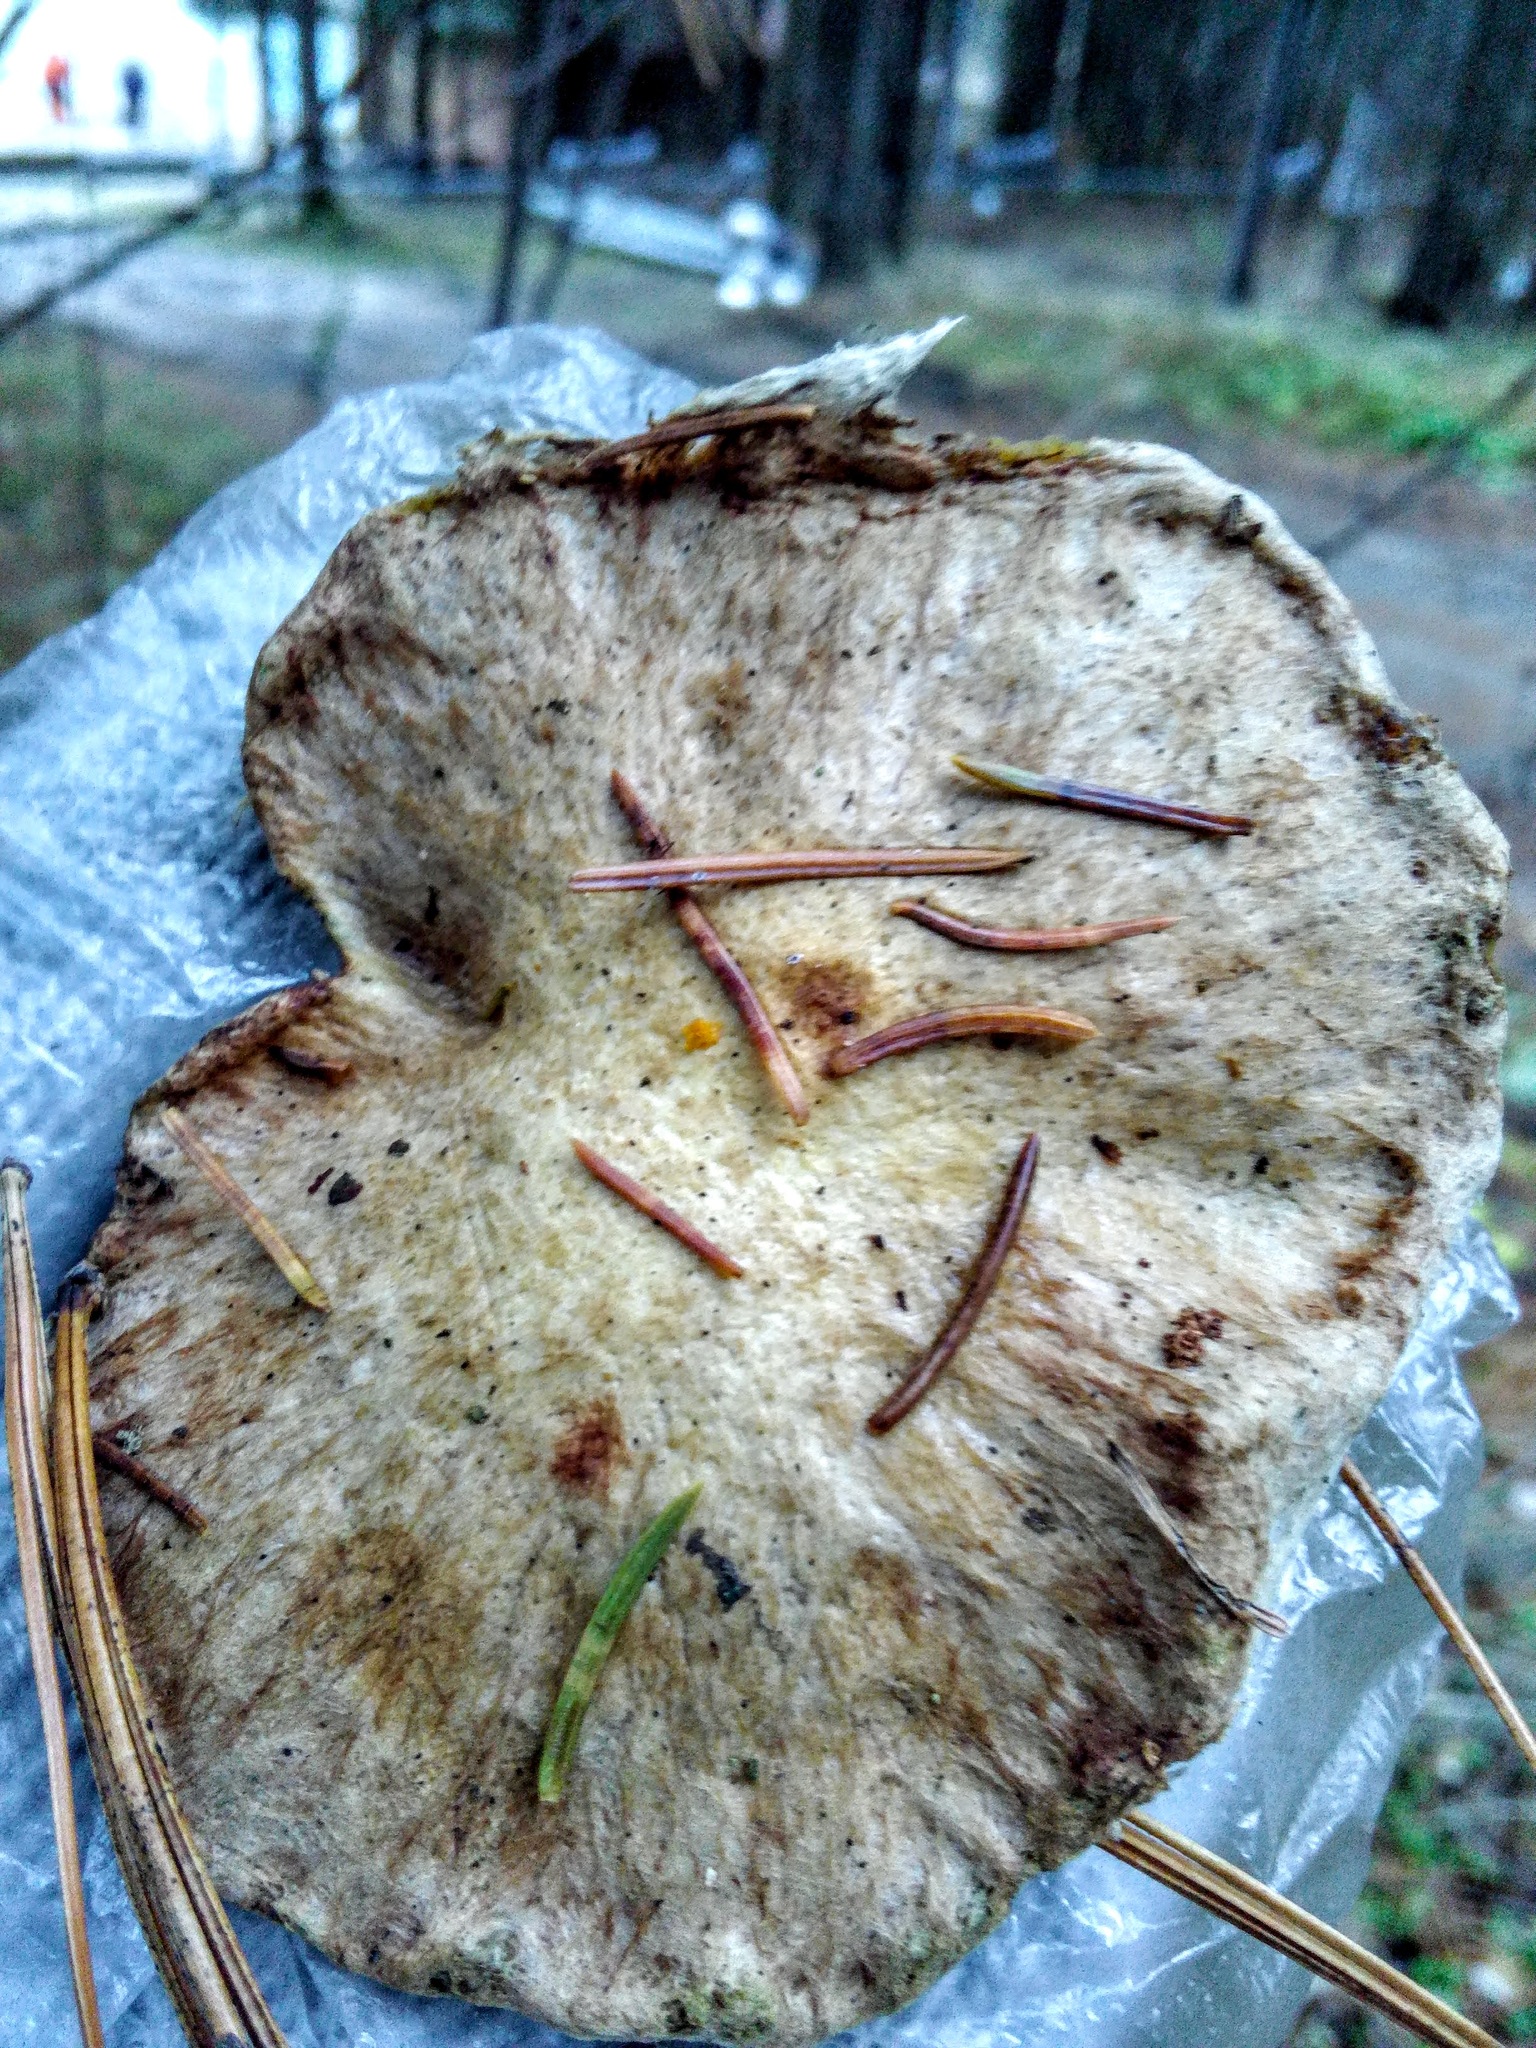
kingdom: Fungi
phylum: Basidiomycota
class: Agaricomycetes
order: Boletales
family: Suillaceae
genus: Suillus
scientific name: Suillus americanus
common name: Chicken fat mushroom
